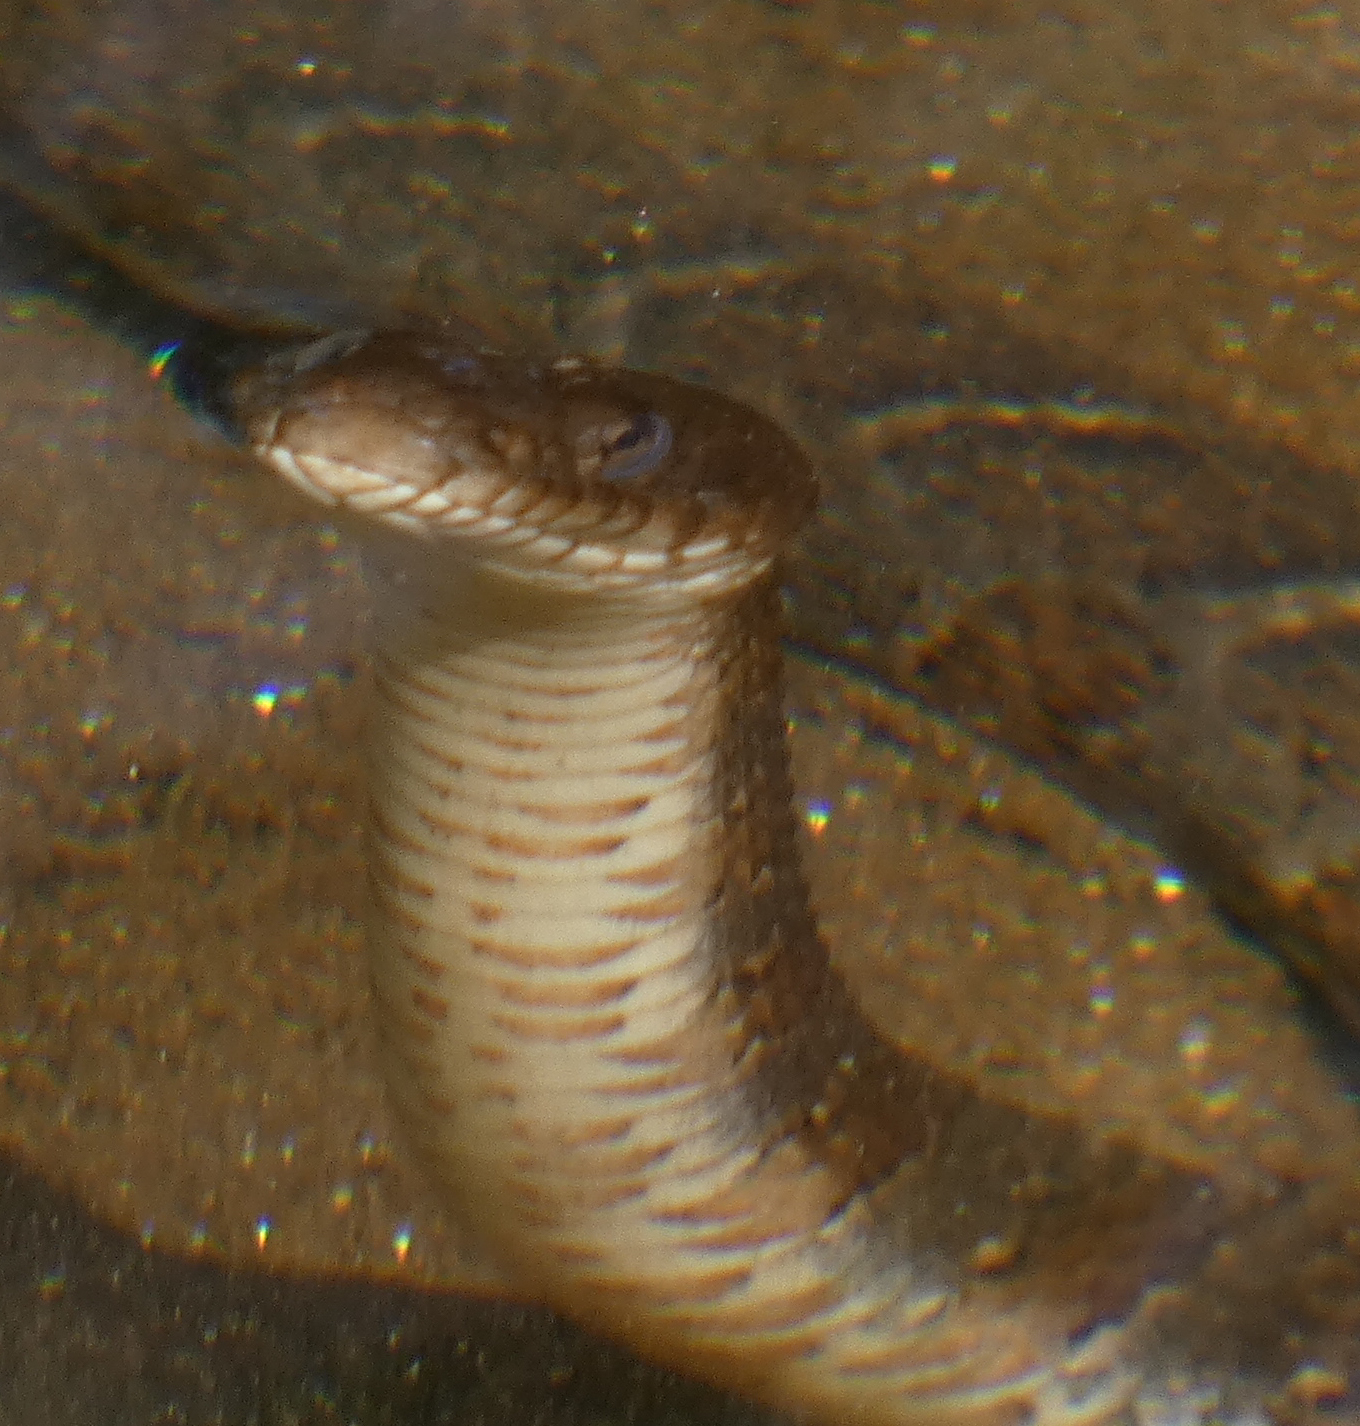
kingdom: Animalia
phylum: Chordata
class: Squamata
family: Colubridae
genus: Nerodia
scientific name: Nerodia sipedon
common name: Northern water snake
